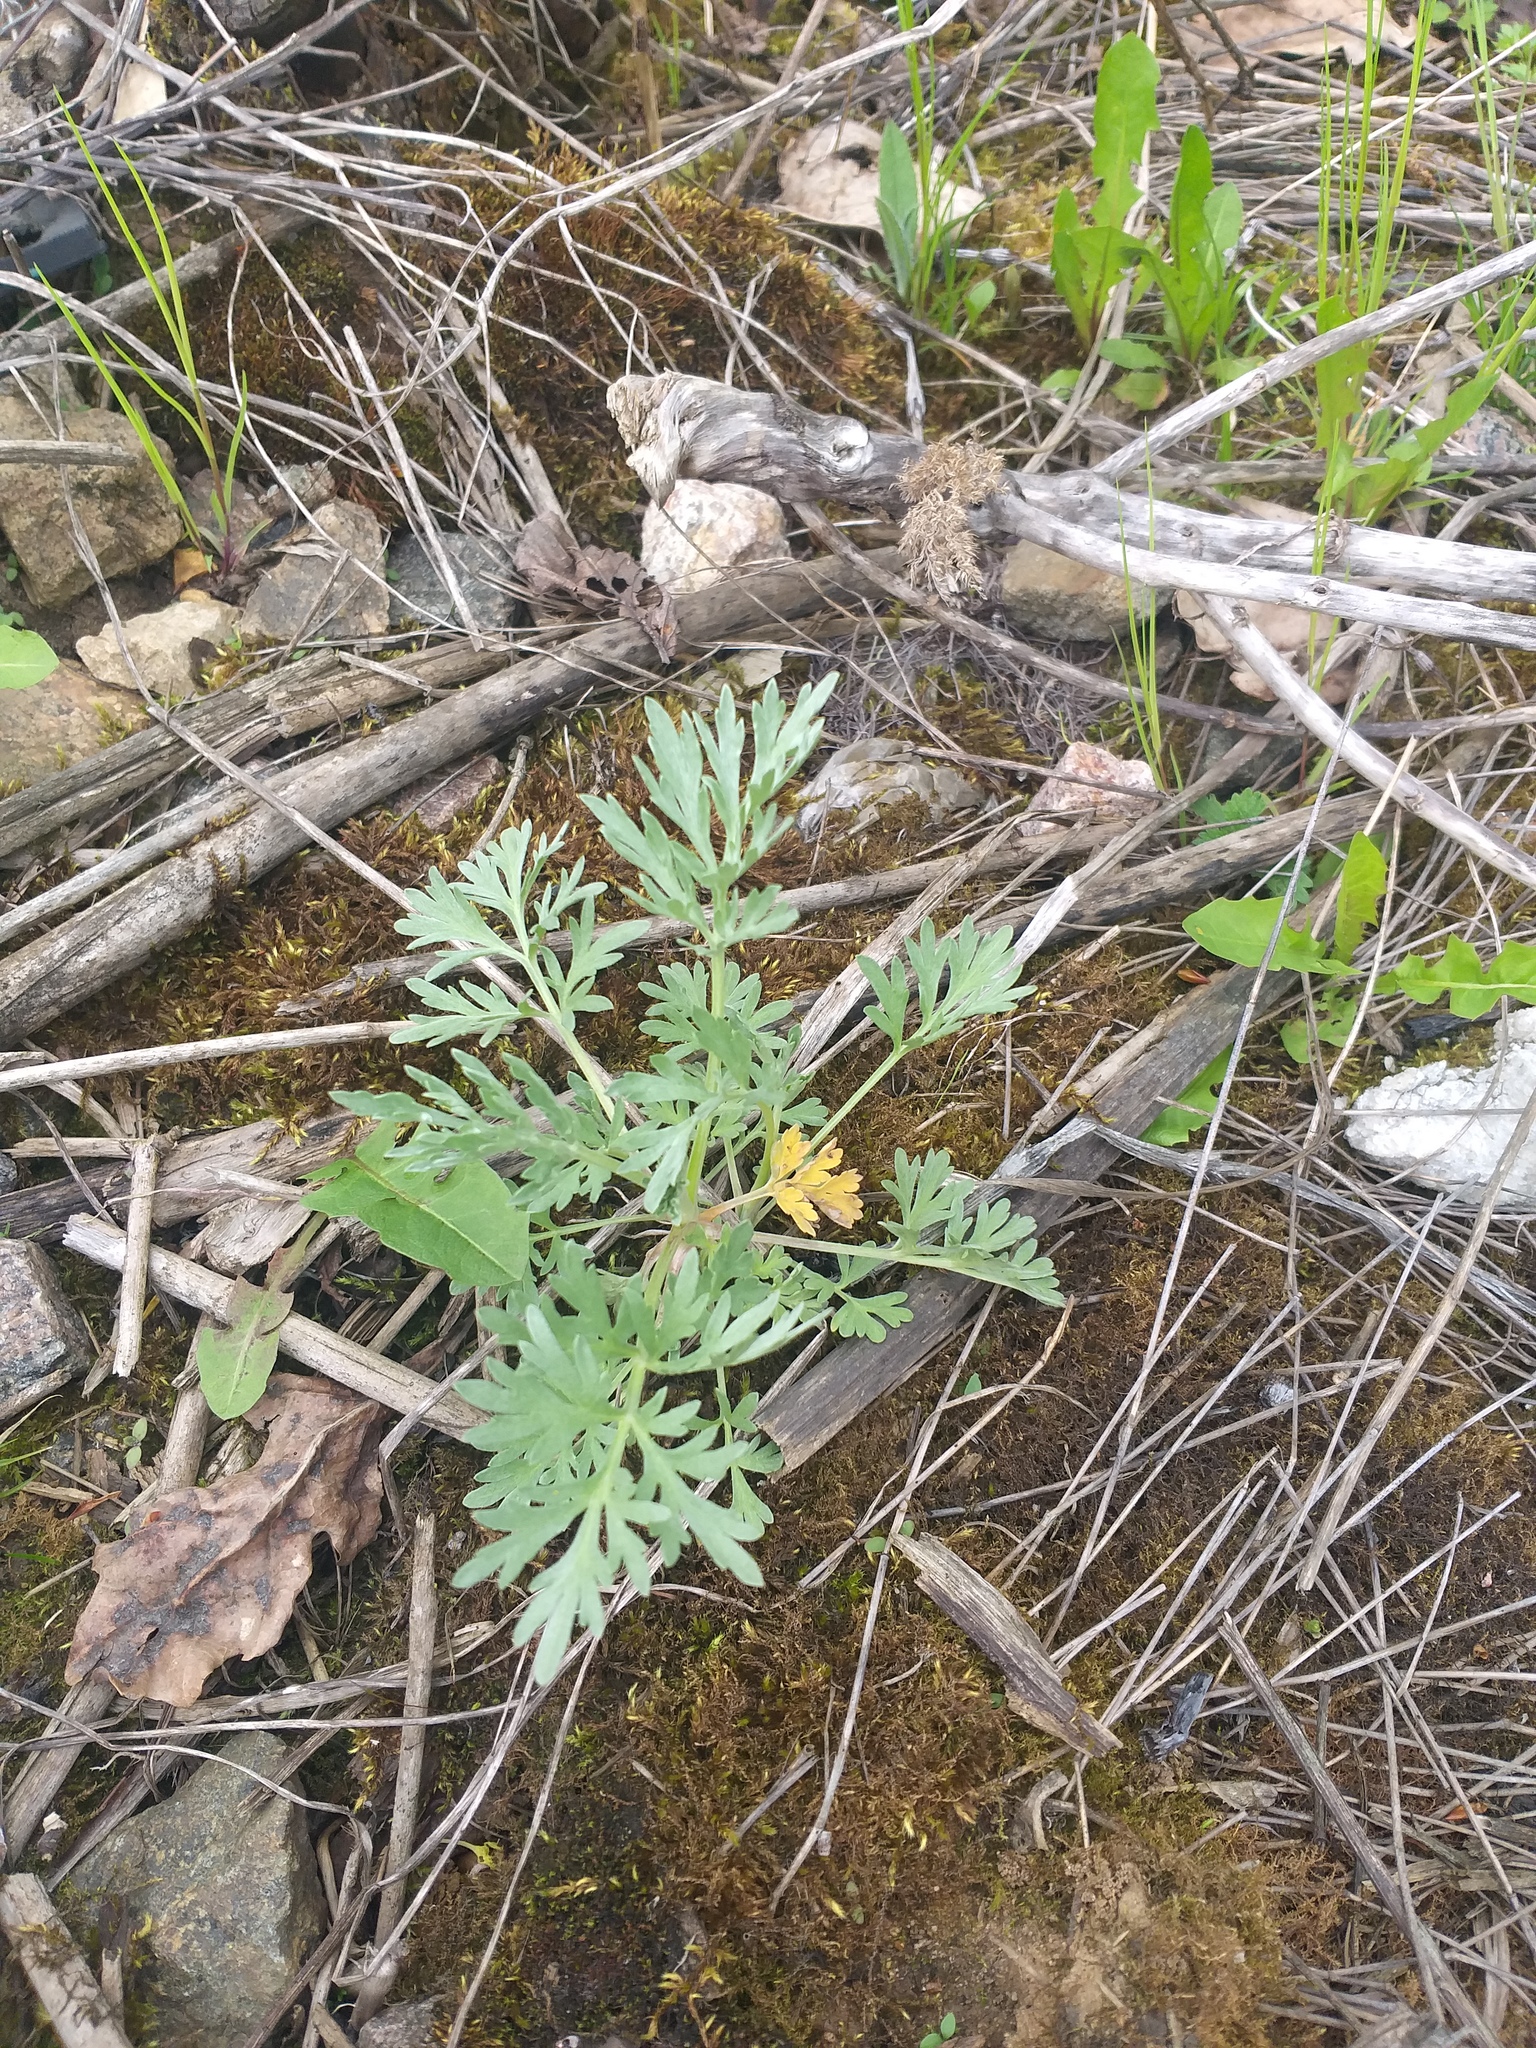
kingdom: Plantae
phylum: Tracheophyta
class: Magnoliopsida
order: Asterales
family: Asteraceae
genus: Artemisia
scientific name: Artemisia absinthium
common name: Wormwood
